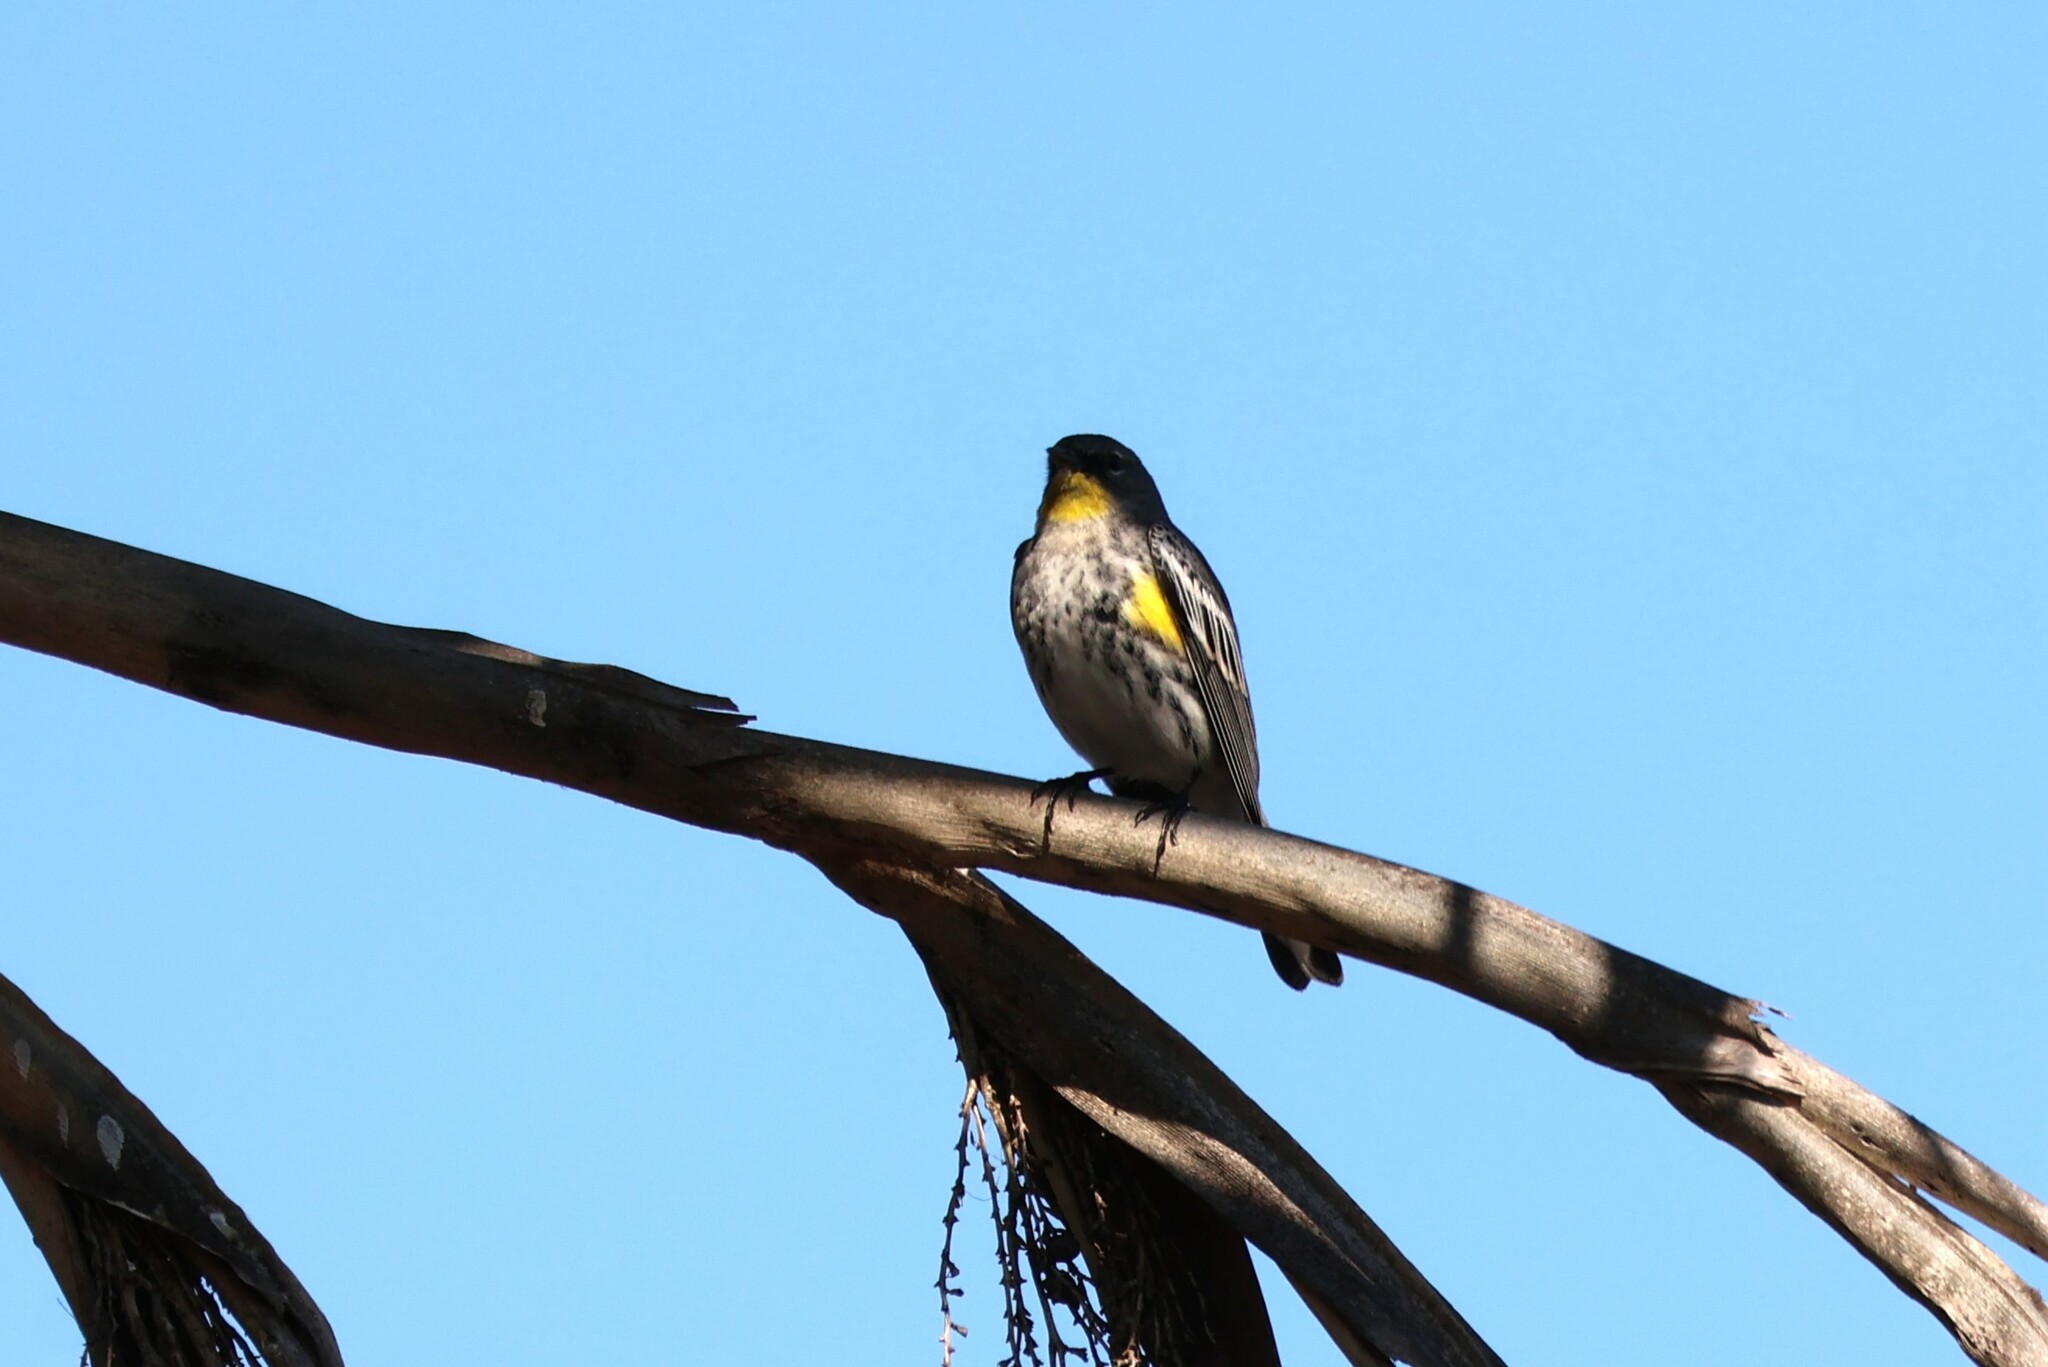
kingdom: Animalia
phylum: Chordata
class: Aves
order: Passeriformes
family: Parulidae
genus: Setophaga
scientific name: Setophaga auduboni
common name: Audubon's warbler
